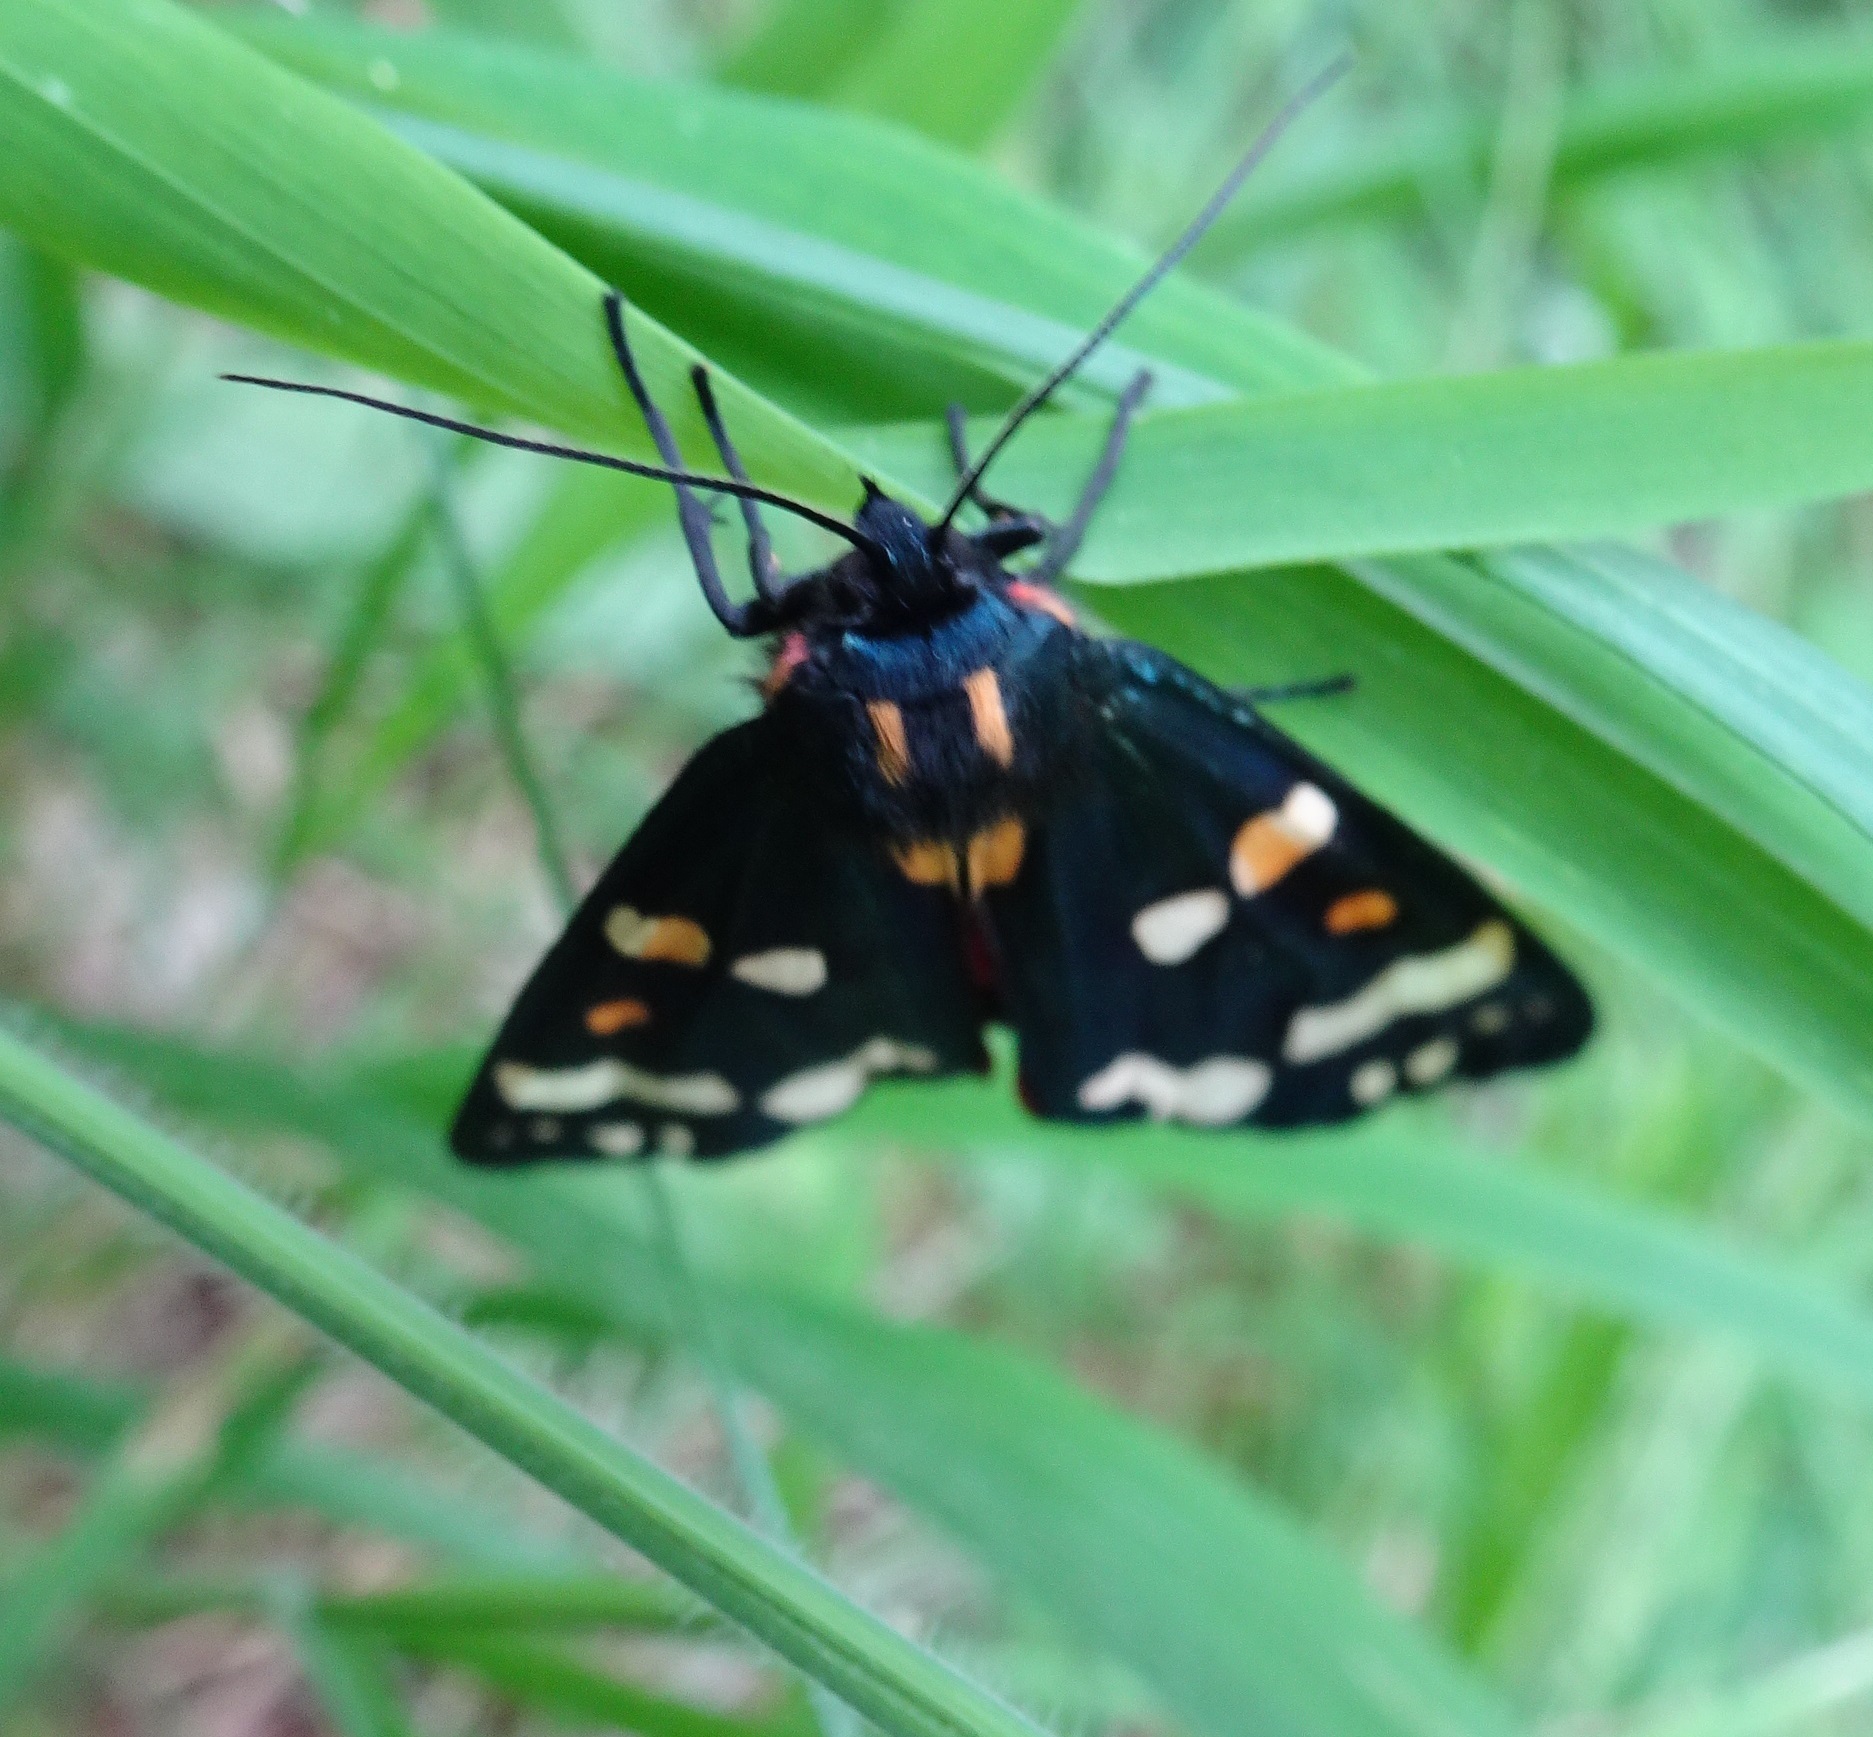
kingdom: Animalia
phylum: Arthropoda
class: Insecta
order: Lepidoptera
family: Erebidae
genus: Callimorpha
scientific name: Callimorpha dominula
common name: Scarlet tiger
